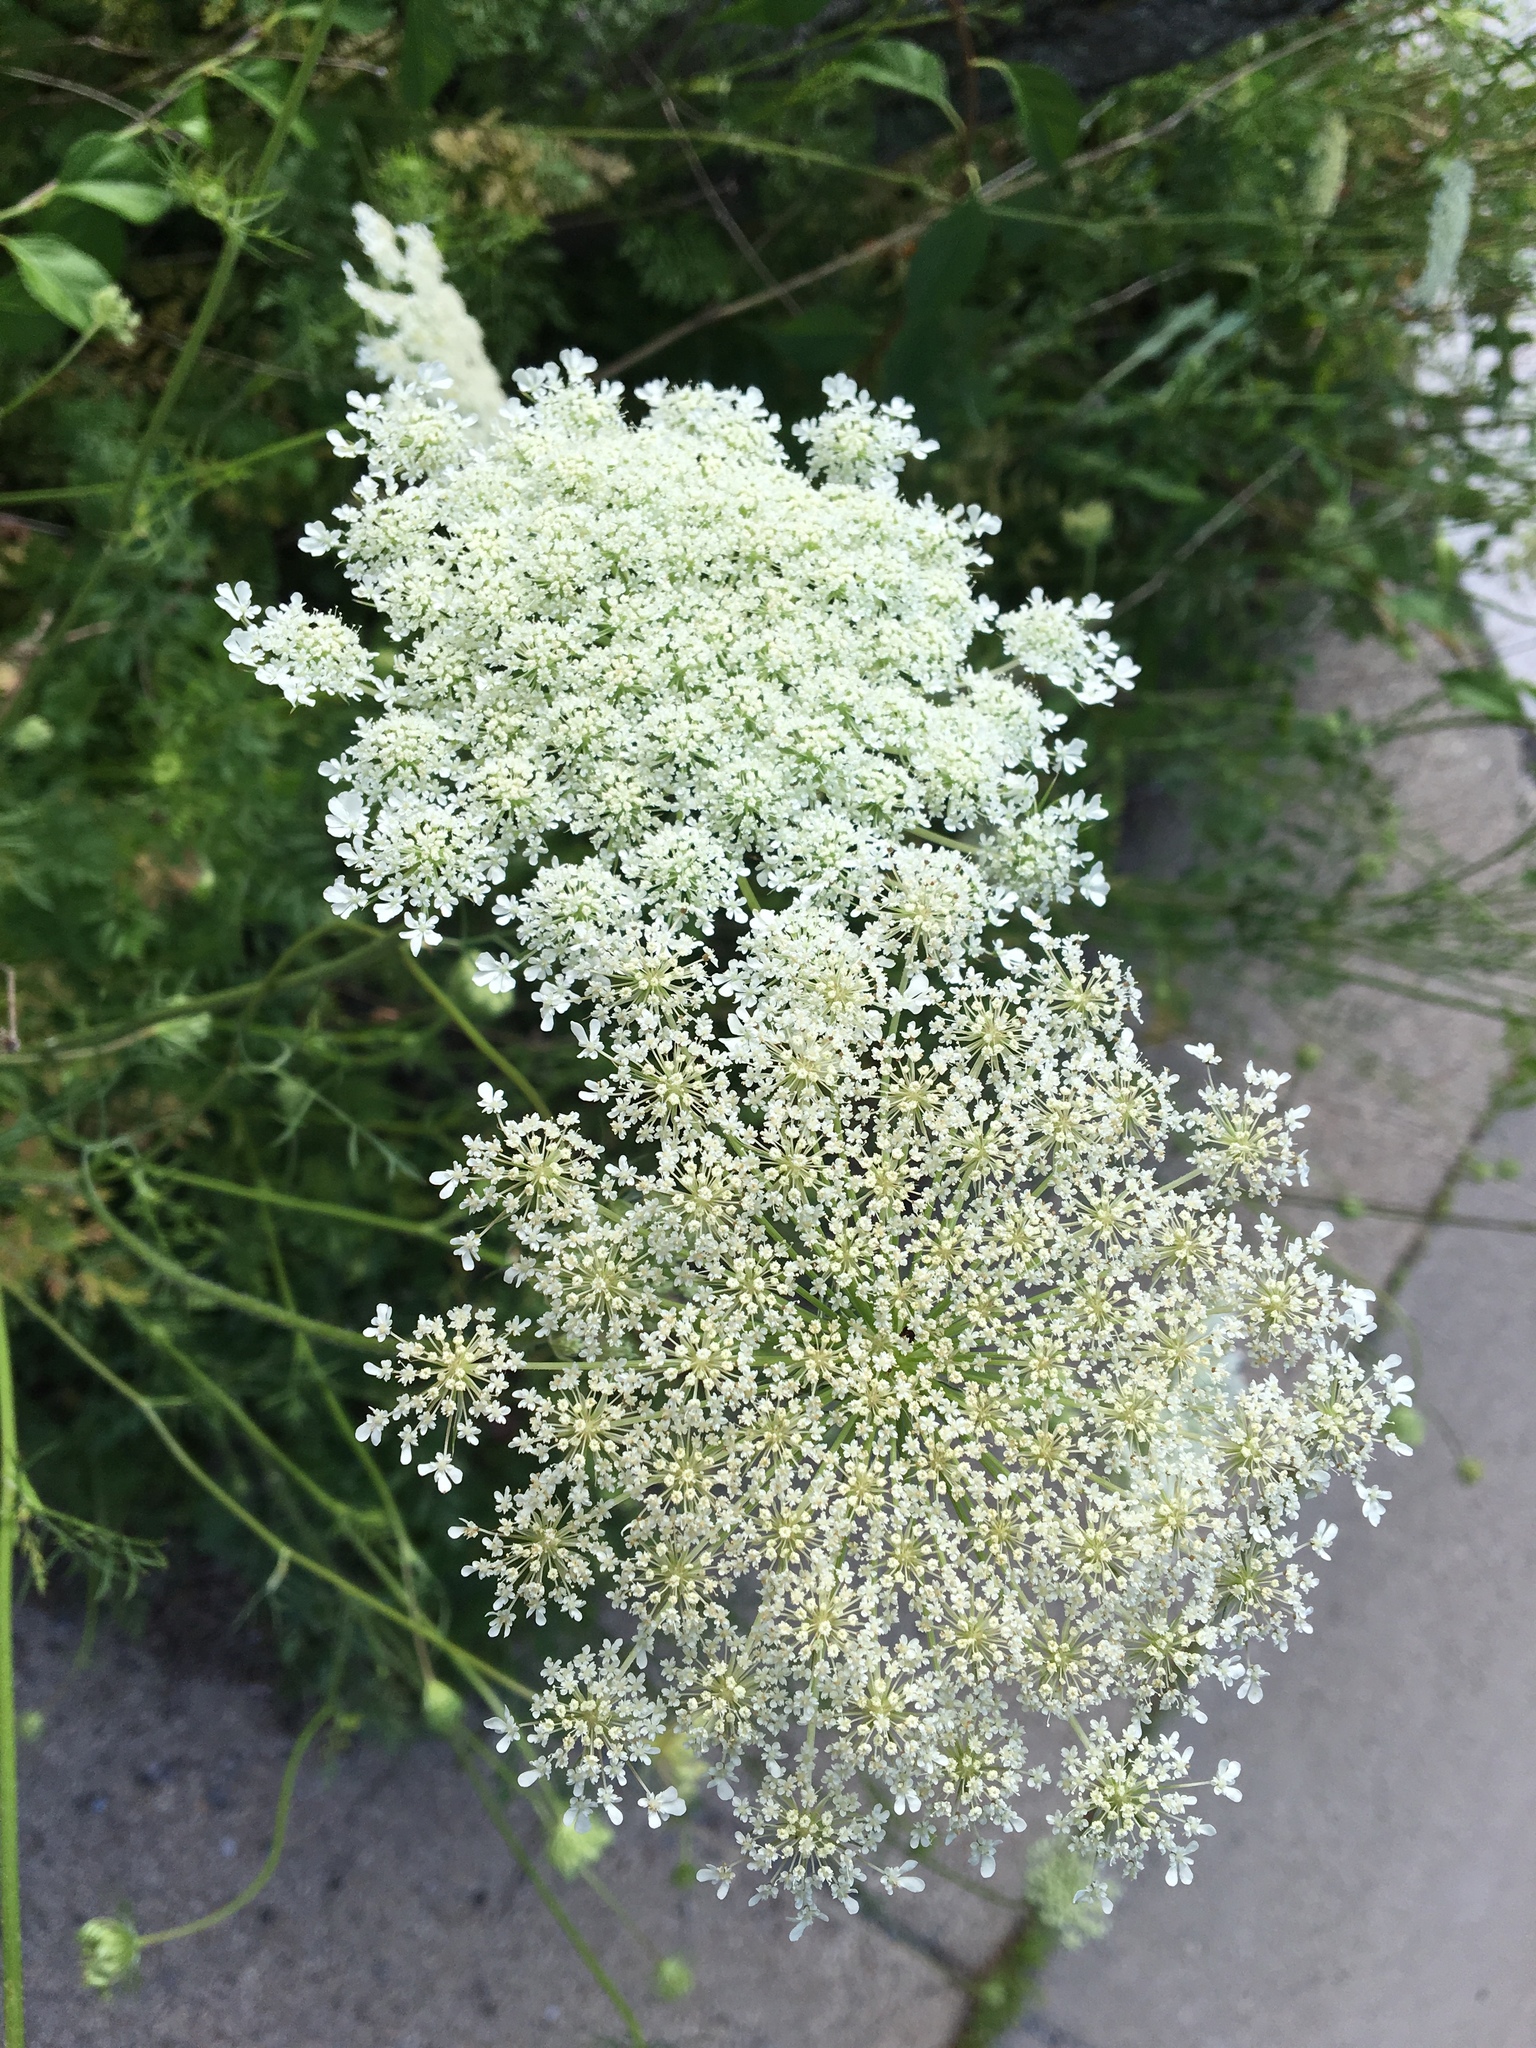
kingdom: Plantae
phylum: Tracheophyta
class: Magnoliopsida
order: Apiales
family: Apiaceae
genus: Daucus
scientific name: Daucus carota
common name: Wild carrot
